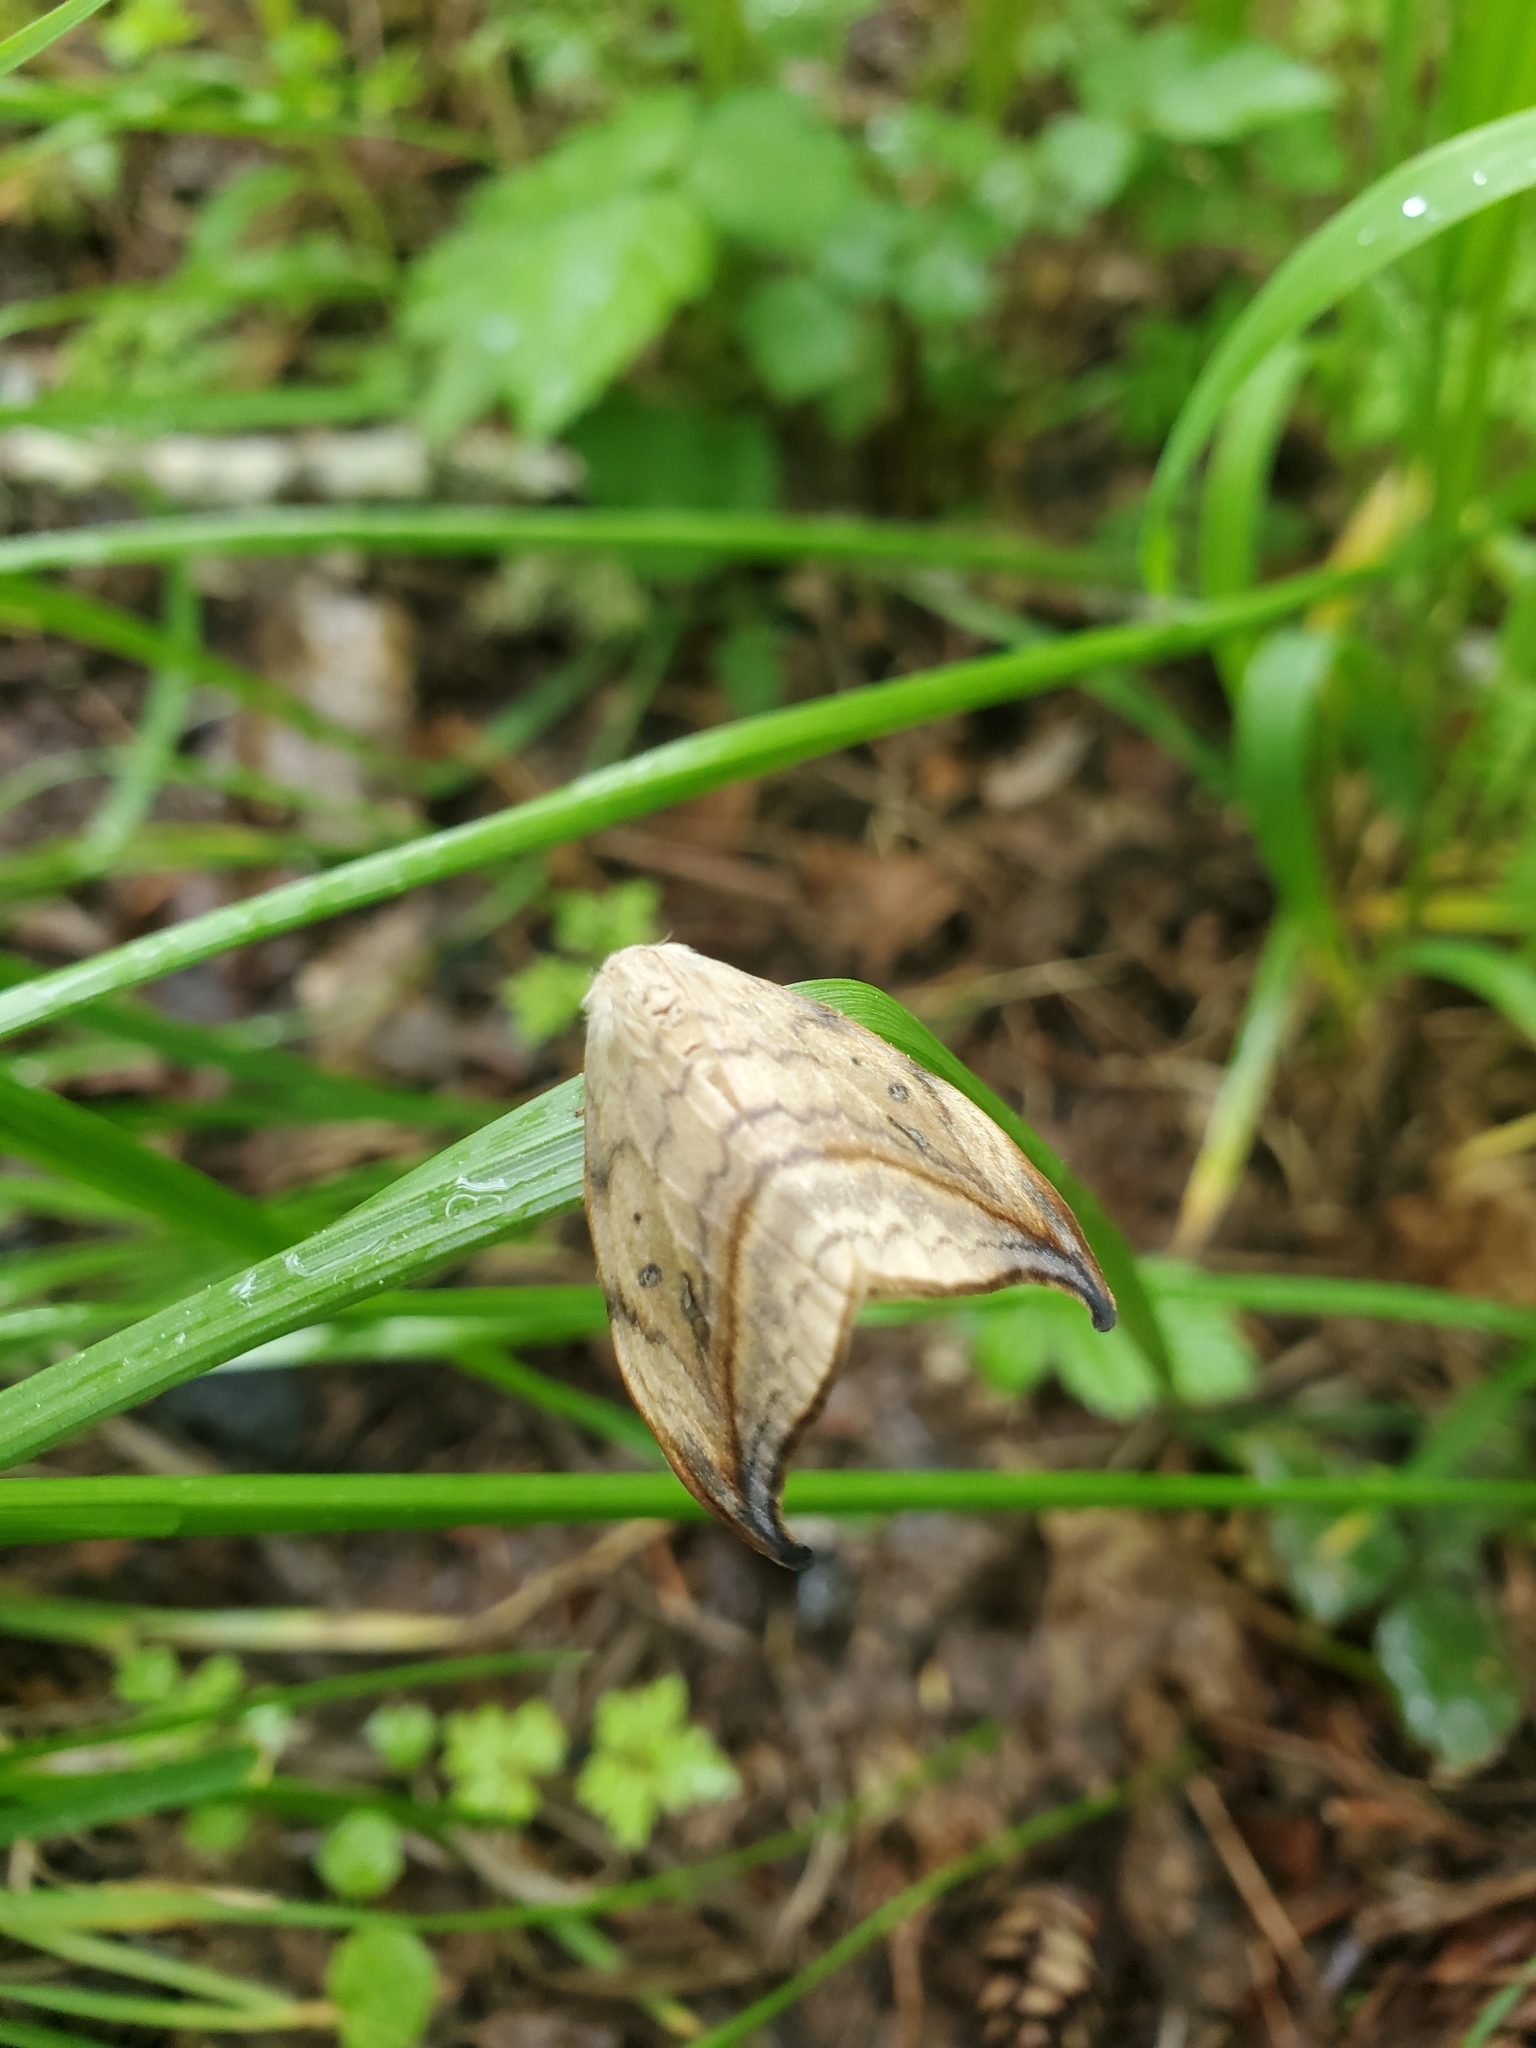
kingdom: Animalia
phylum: Arthropoda
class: Insecta
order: Lepidoptera
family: Drepanidae
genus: Drepana
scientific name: Drepana arcuata
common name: Arched hooktip moth
